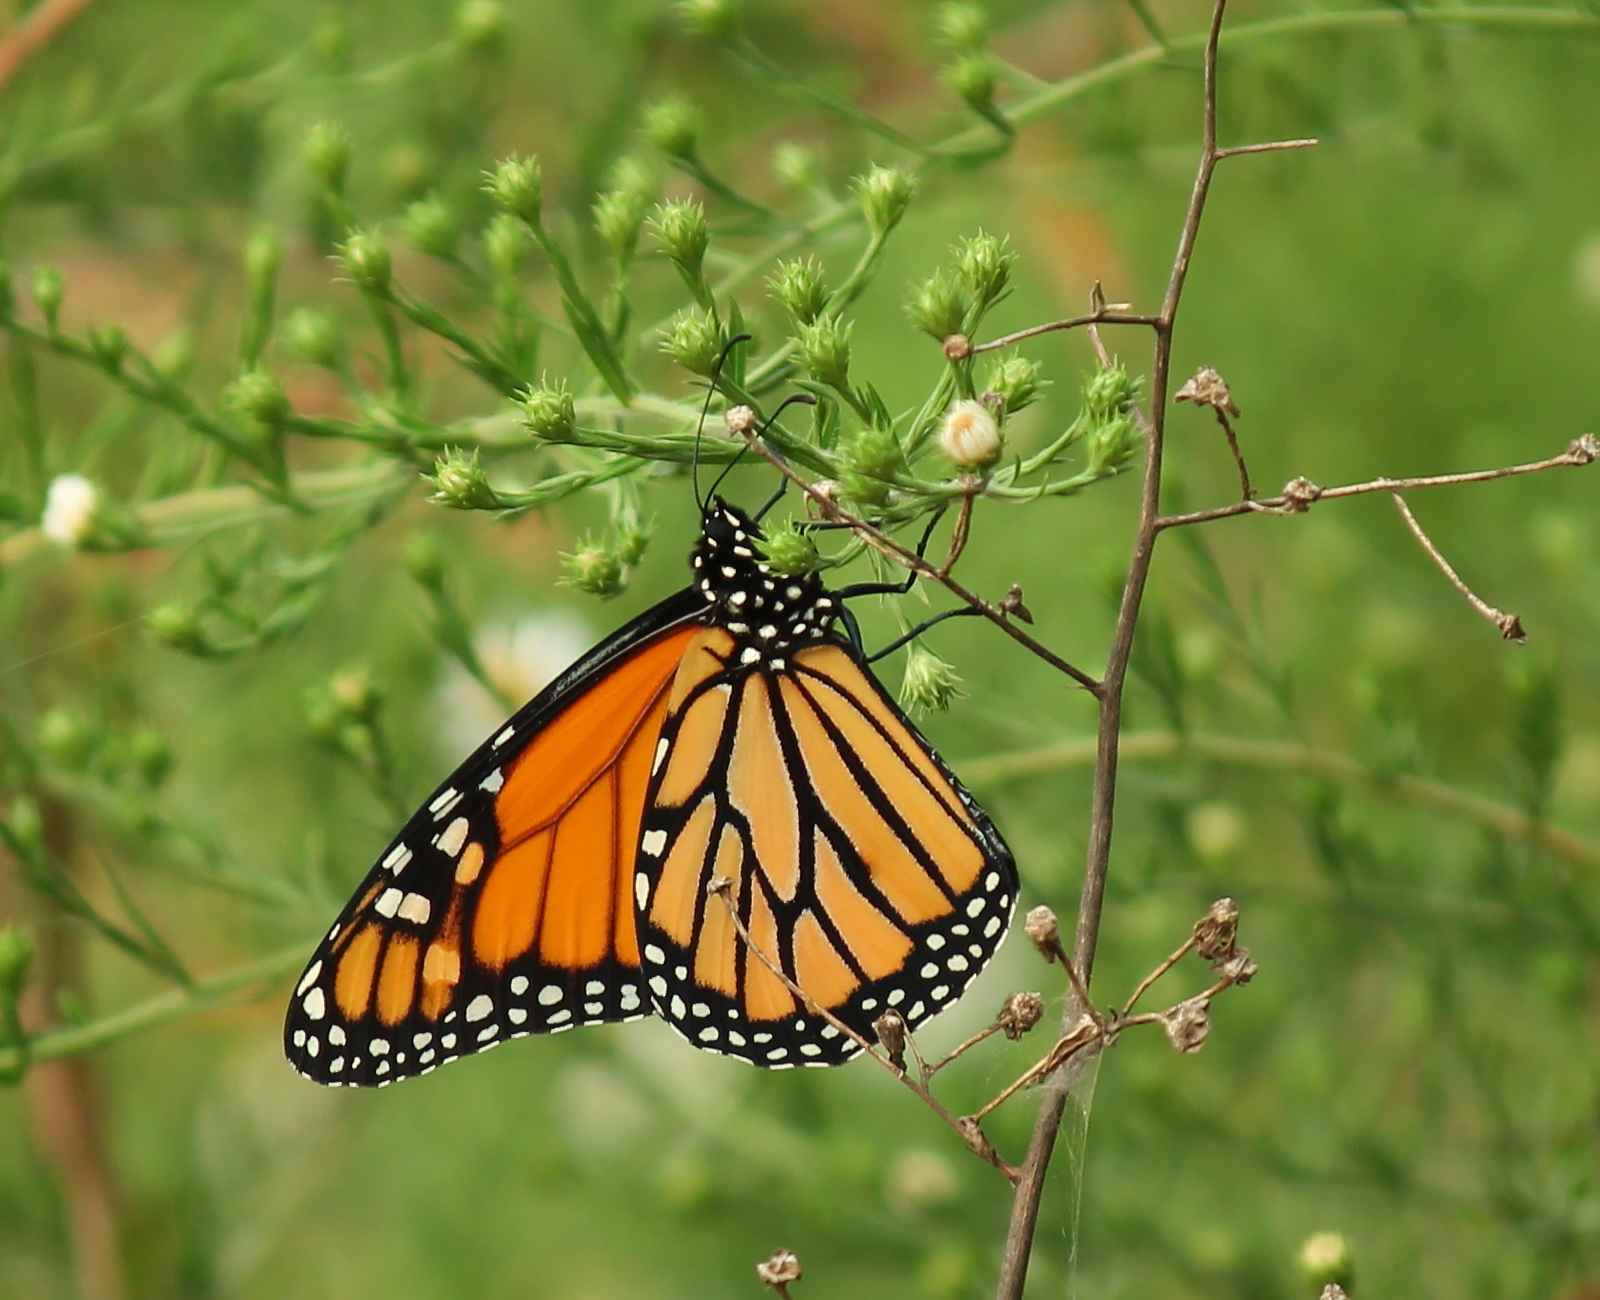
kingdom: Animalia
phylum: Arthropoda
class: Insecta
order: Lepidoptera
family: Nymphalidae
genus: Danaus
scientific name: Danaus plexippus
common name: Monarch
